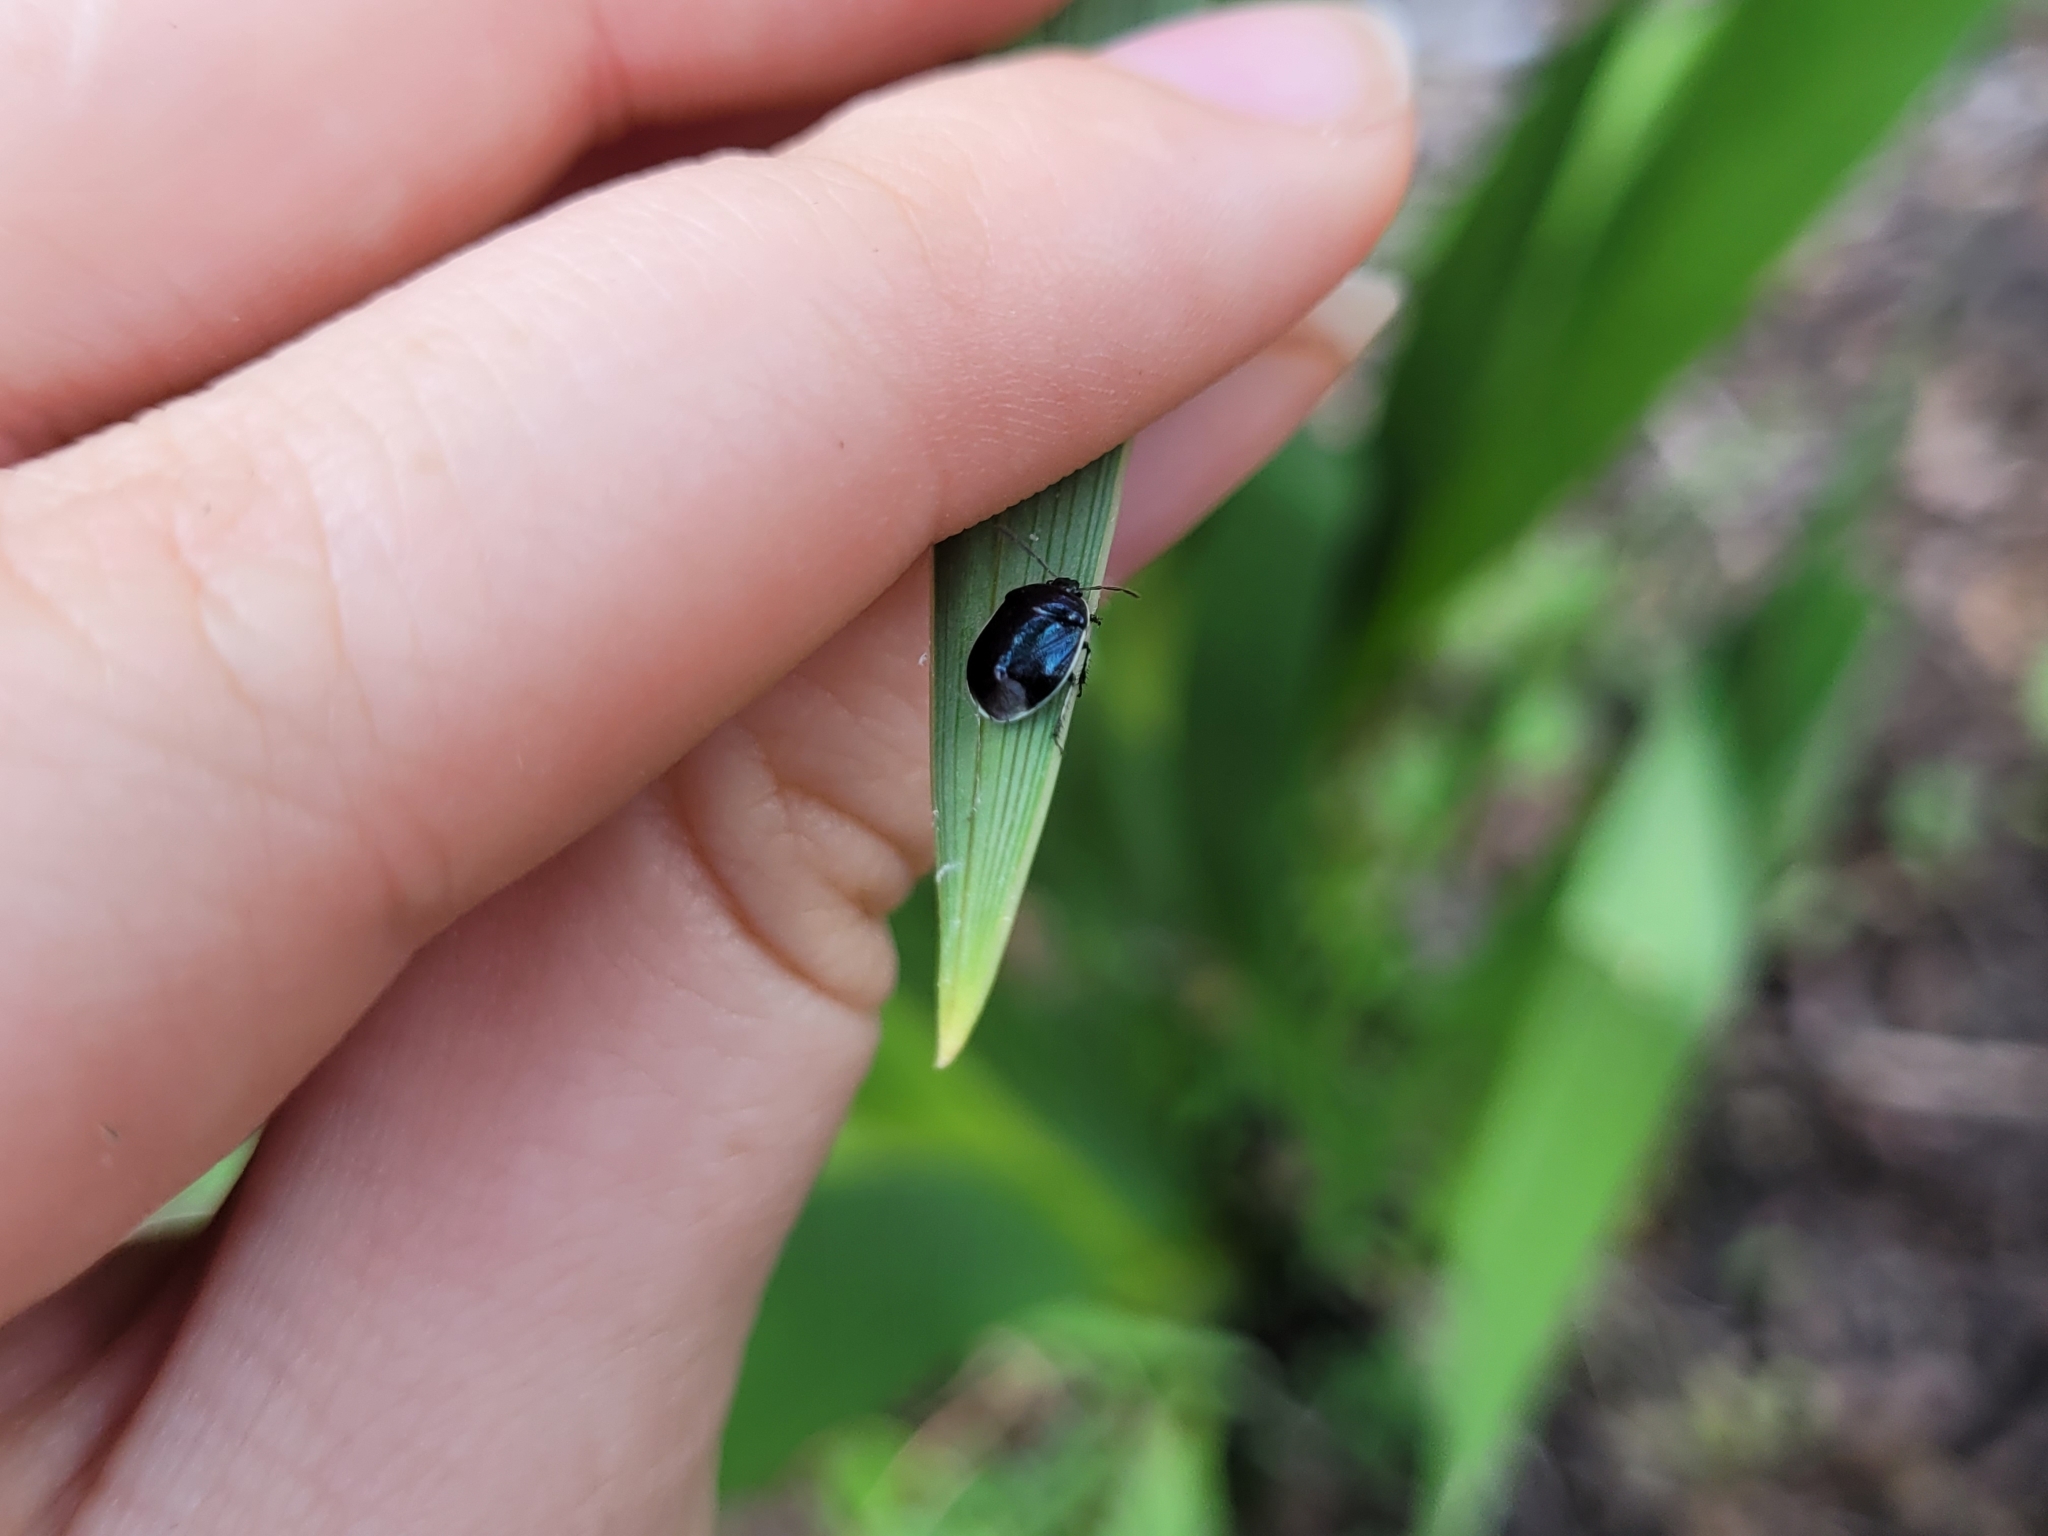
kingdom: Animalia
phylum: Arthropoda
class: Insecta
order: Hemiptera
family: Cydnidae
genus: Sehirus
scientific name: Sehirus cinctus
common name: White-margined burrower bug
